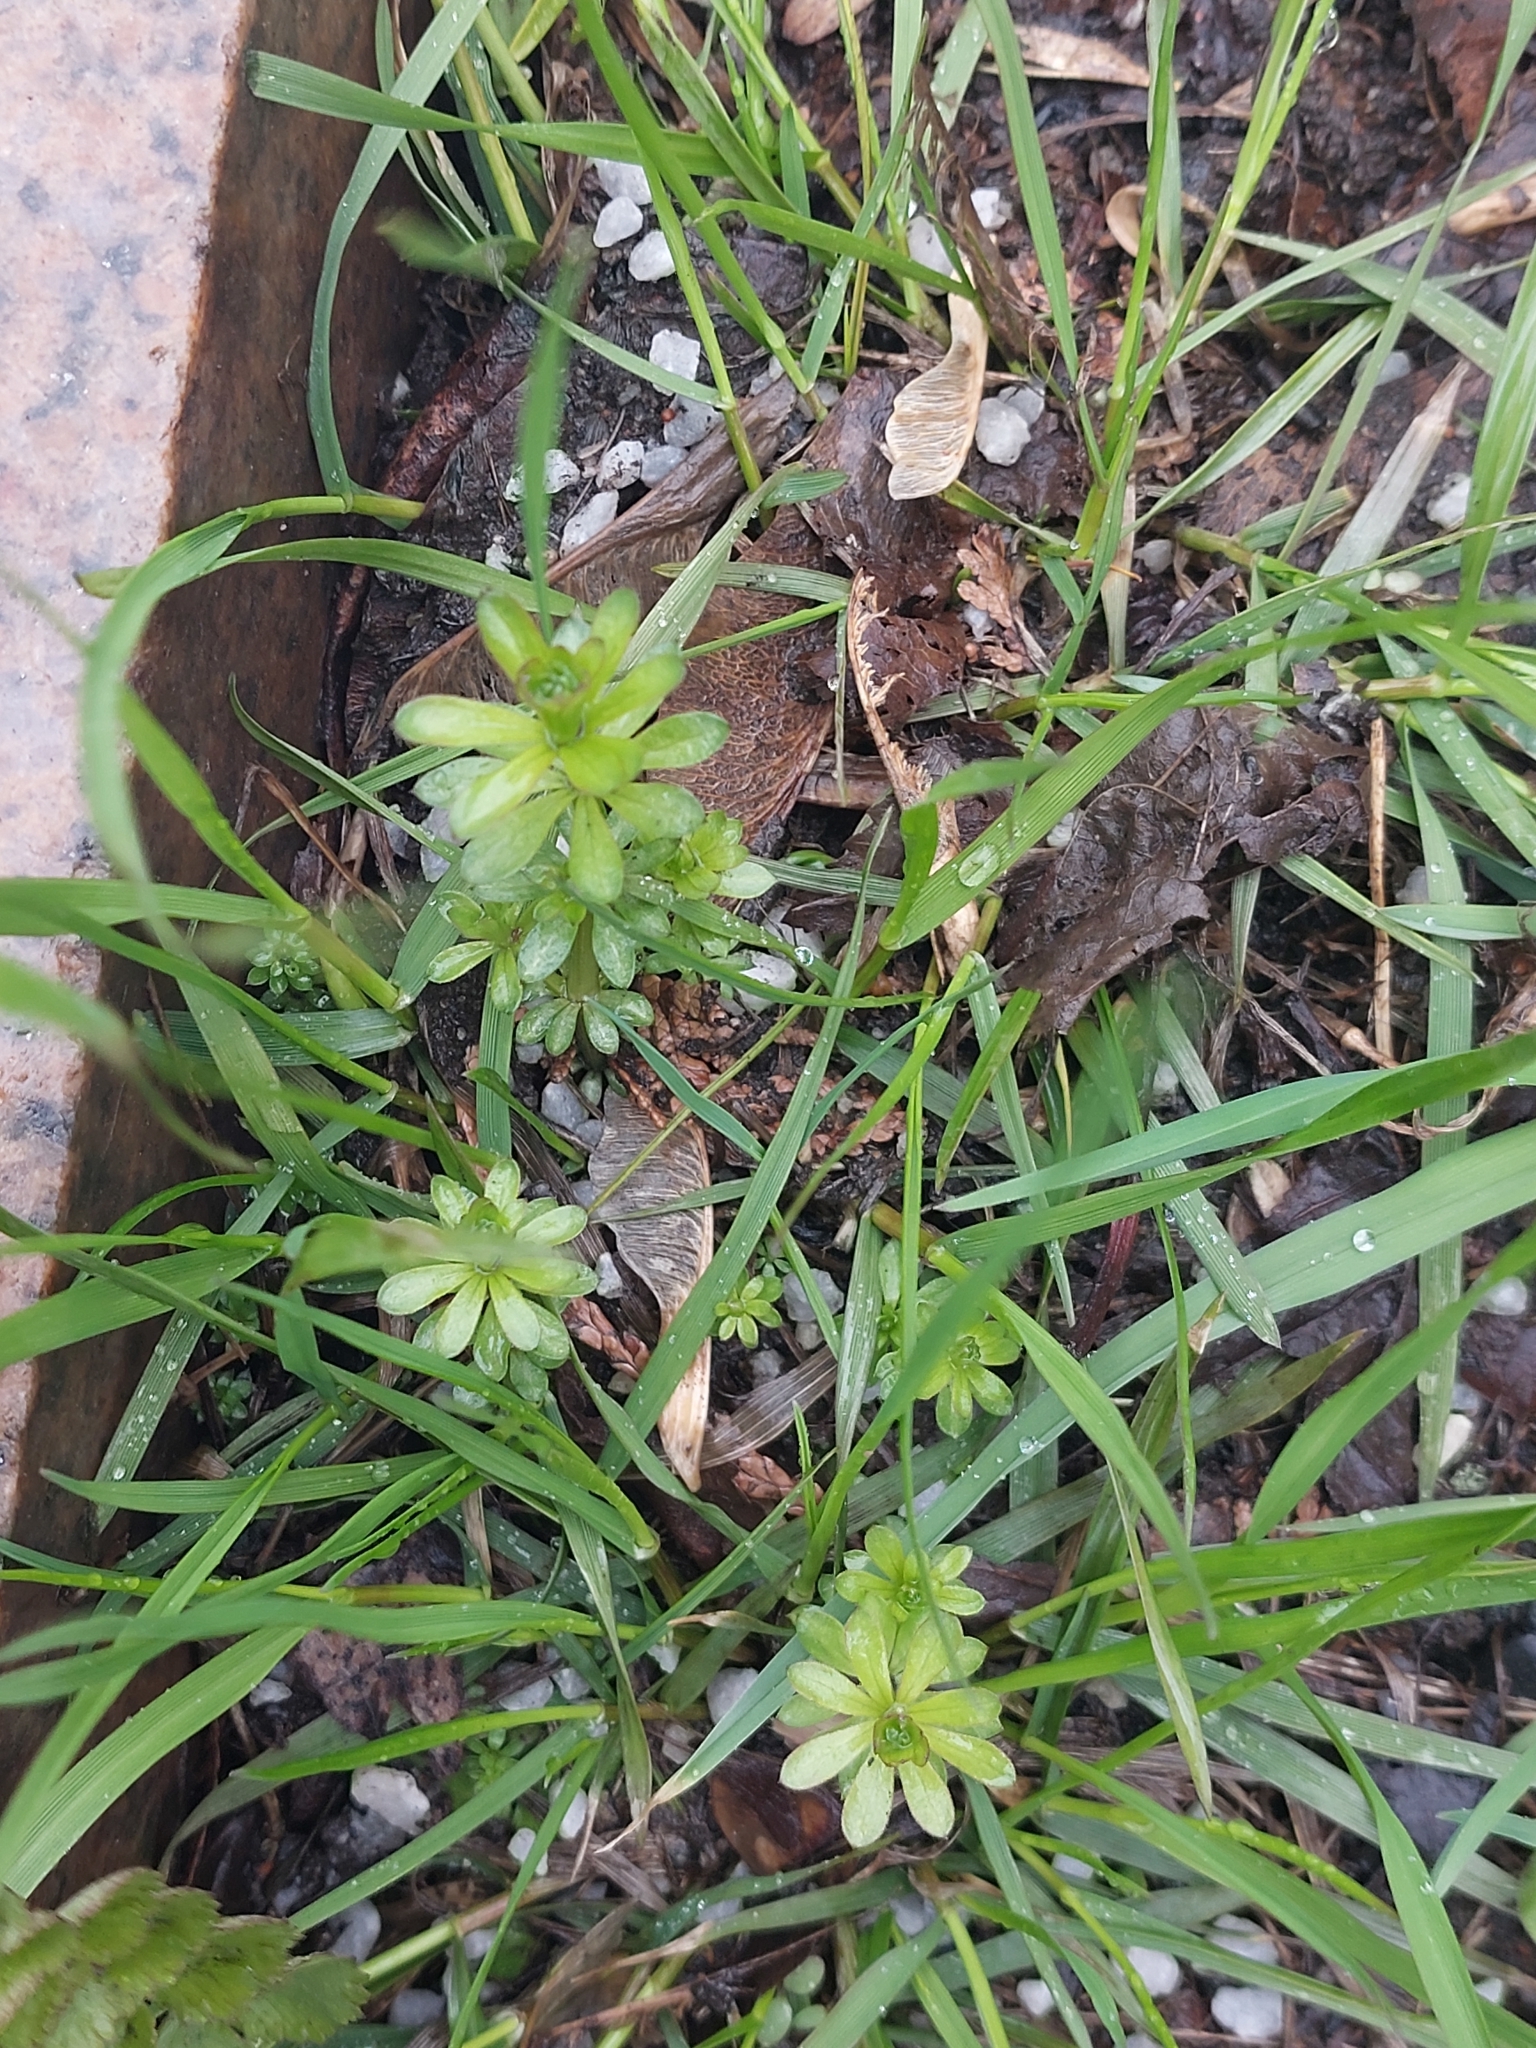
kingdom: Plantae
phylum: Tracheophyta
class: Magnoliopsida
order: Gentianales
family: Rubiaceae
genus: Galium
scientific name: Galium mollugo
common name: Hedge bedstraw
